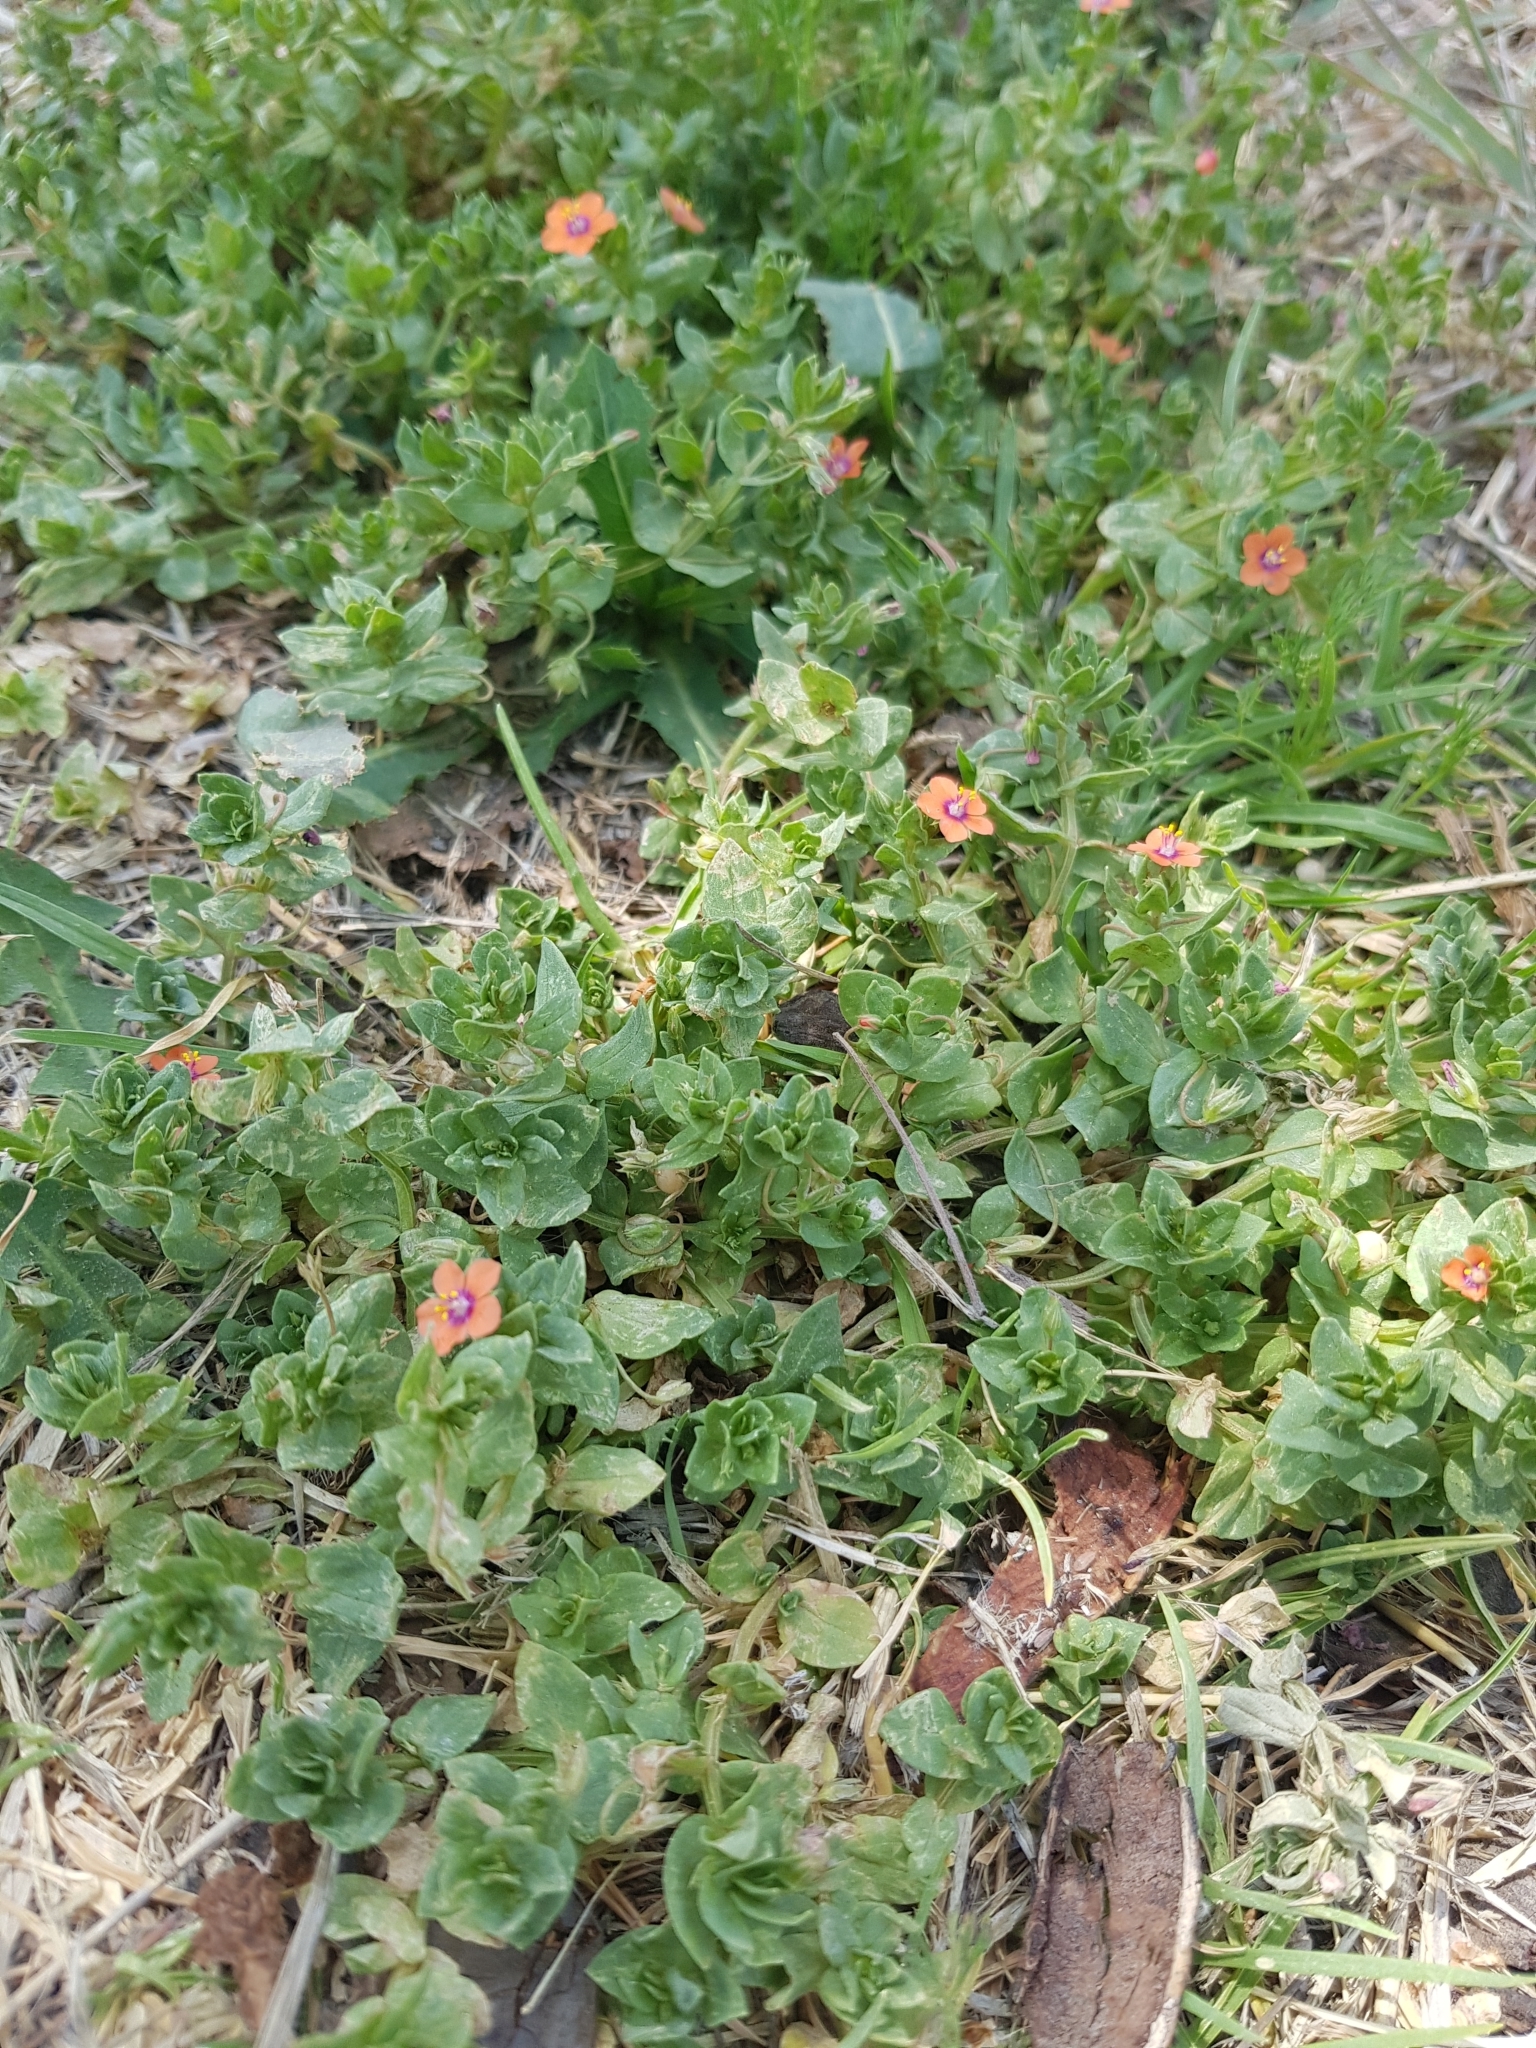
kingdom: Plantae
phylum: Tracheophyta
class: Magnoliopsida
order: Ericales
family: Primulaceae
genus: Lysimachia
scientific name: Lysimachia arvensis
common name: Scarlet pimpernel
